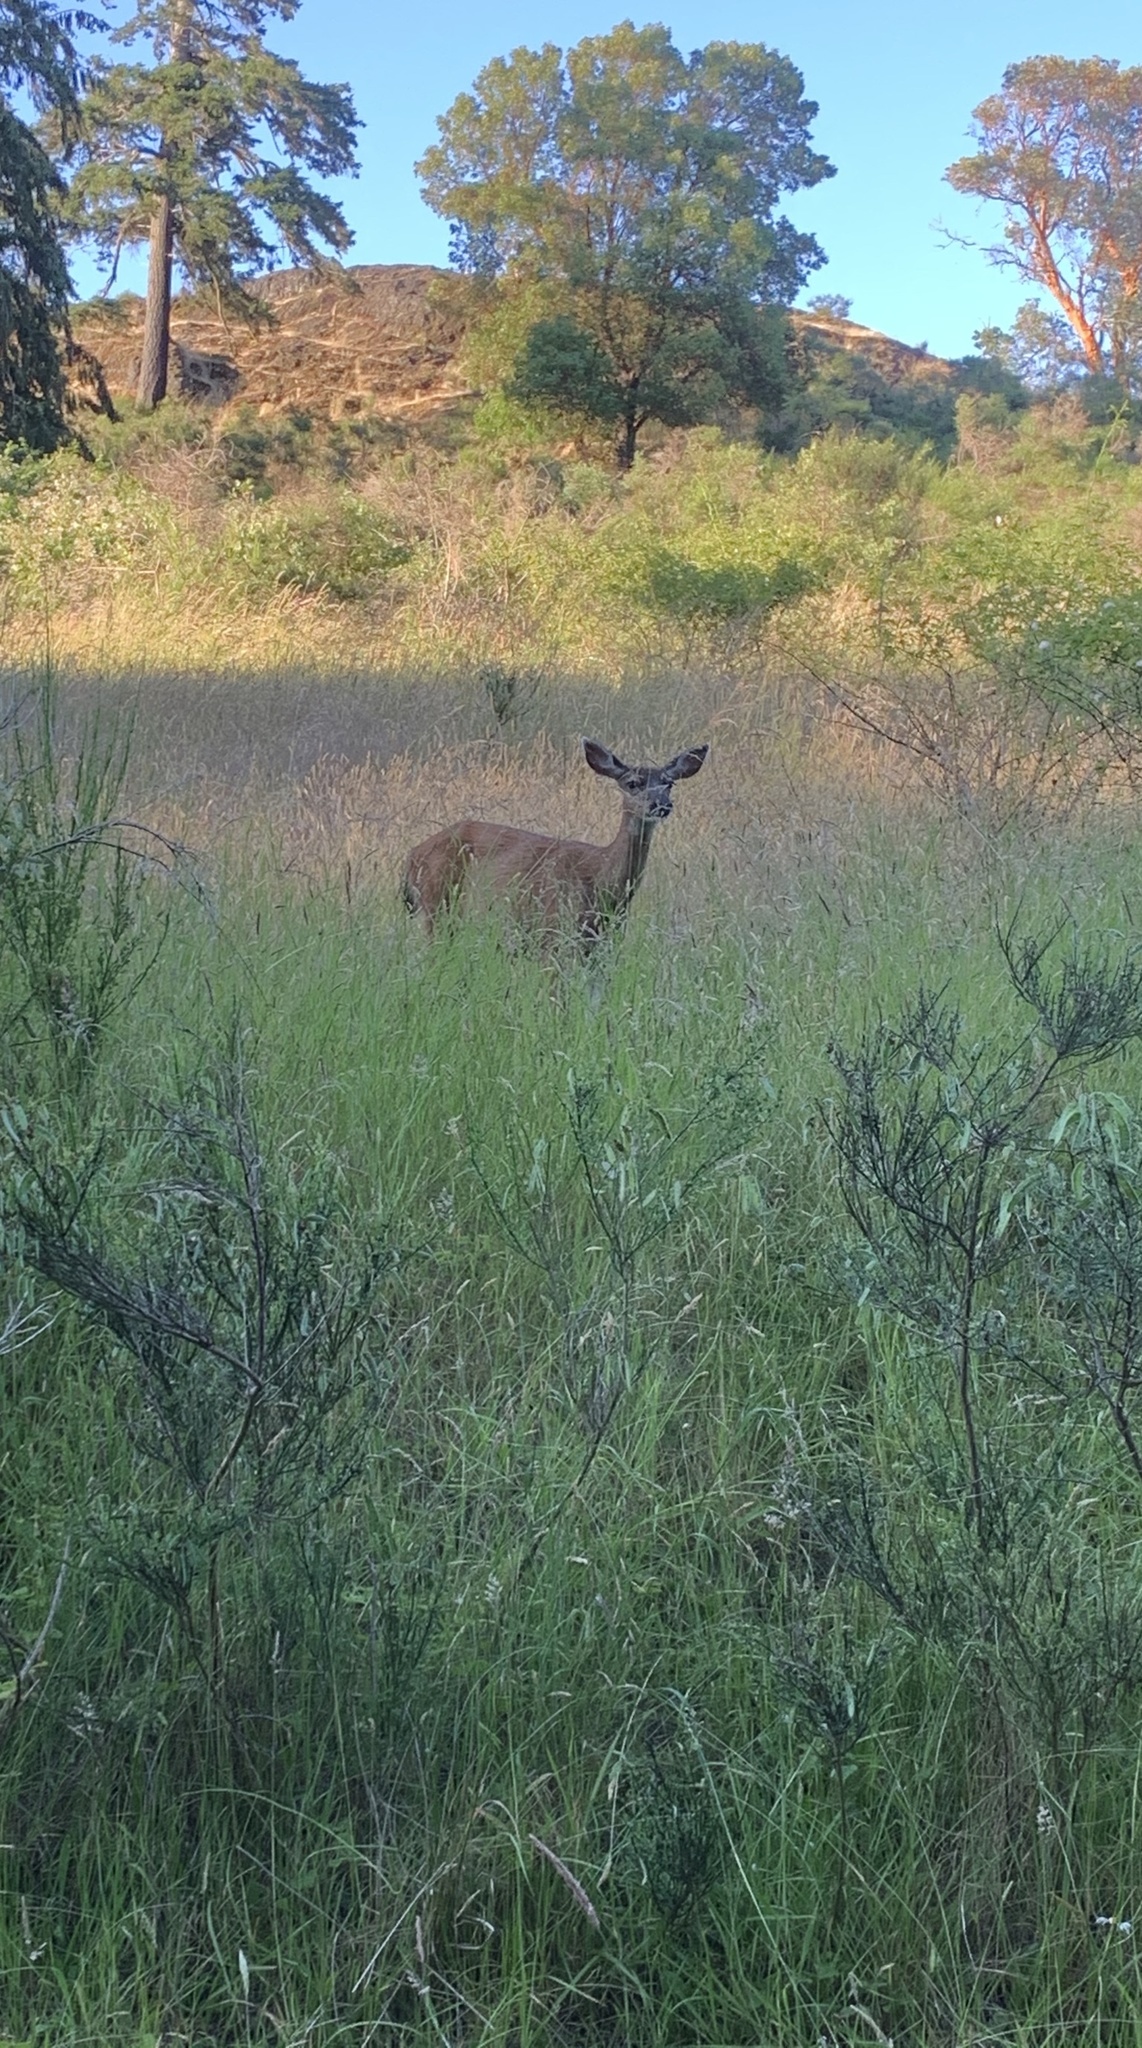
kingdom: Animalia
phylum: Chordata
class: Mammalia
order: Artiodactyla
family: Cervidae
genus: Odocoileus
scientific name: Odocoileus hemionus
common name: Mule deer
